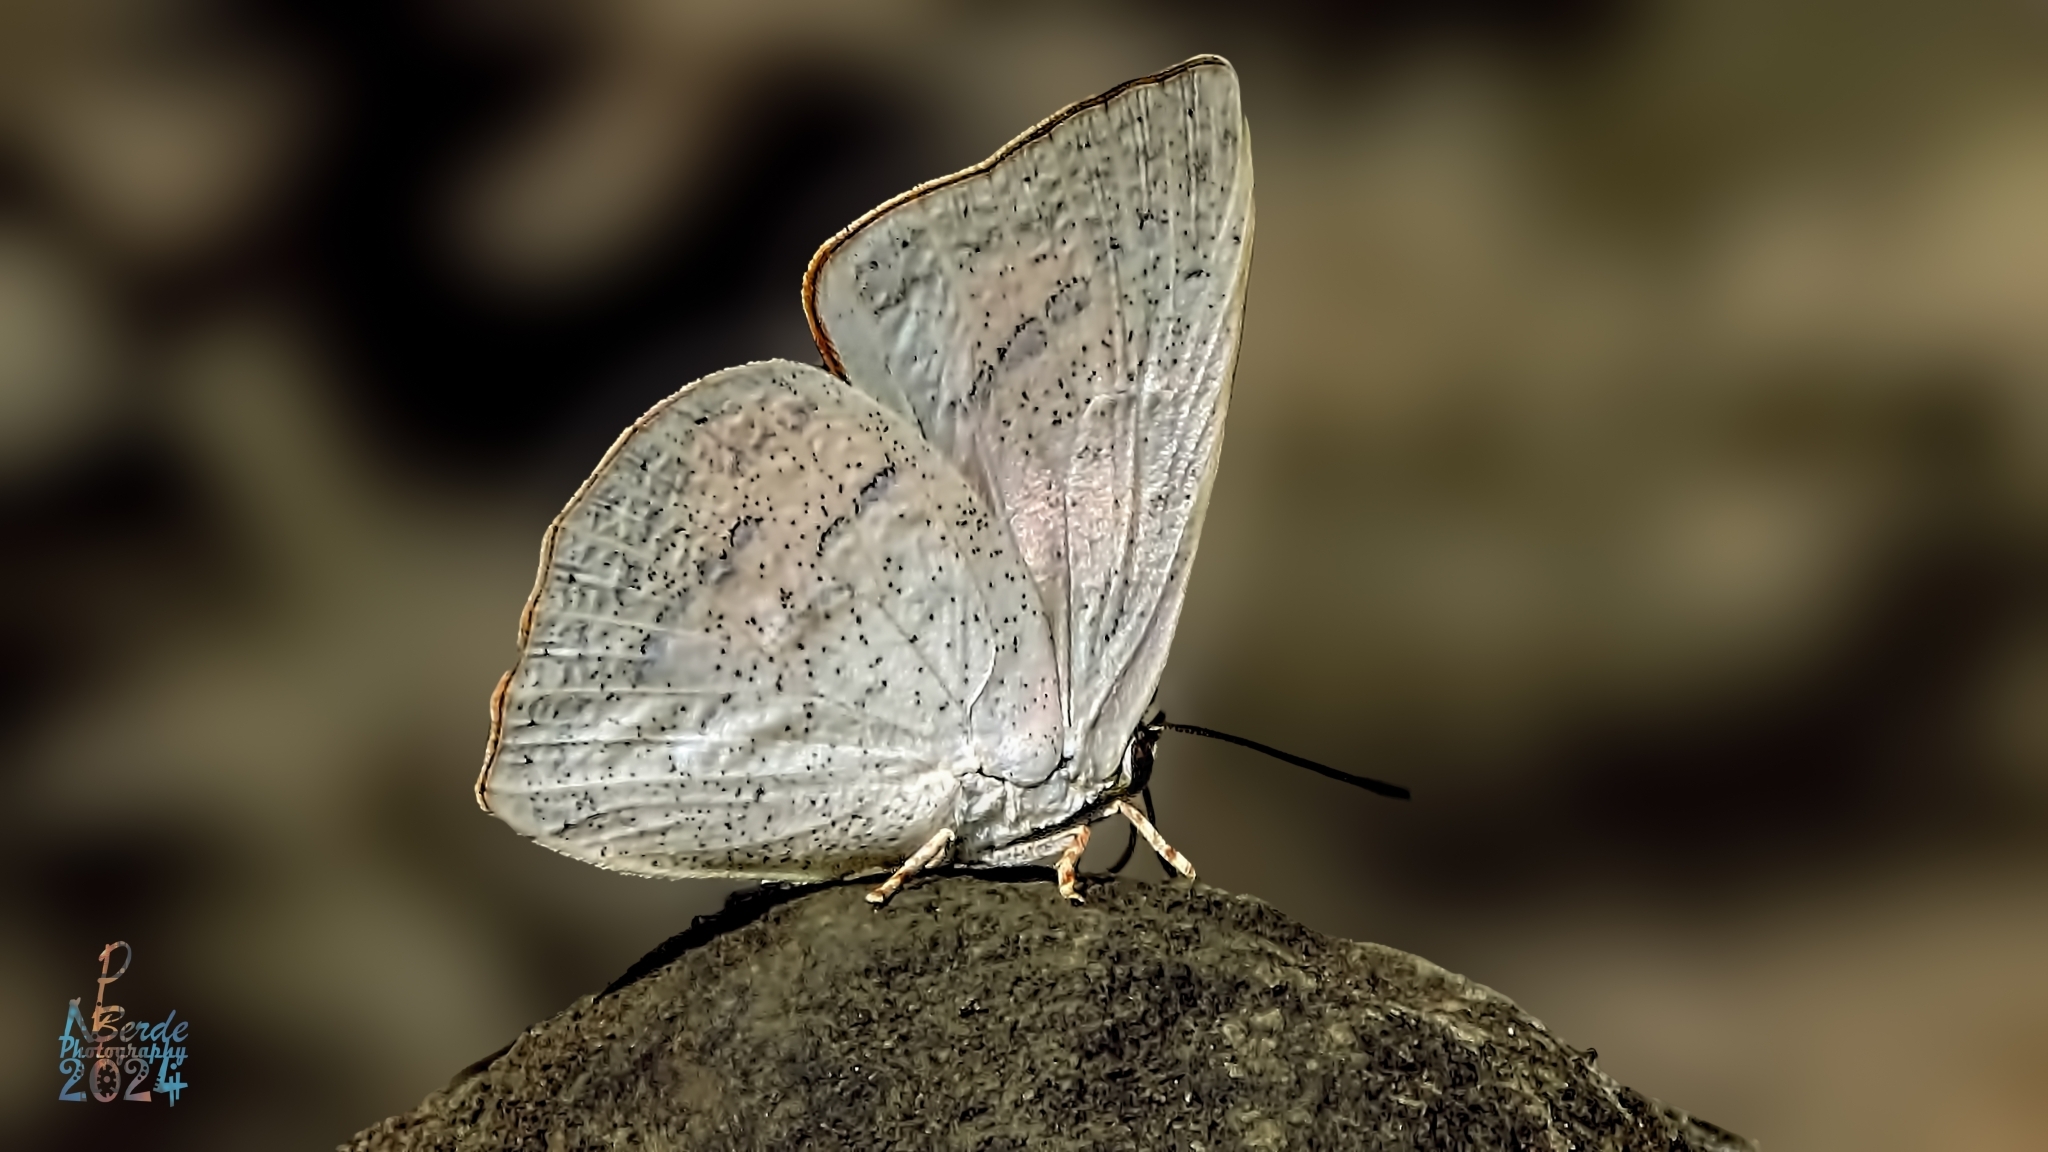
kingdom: Animalia
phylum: Arthropoda
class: Insecta
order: Lepidoptera
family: Lycaenidae
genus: Curetis
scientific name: Curetis acuta
